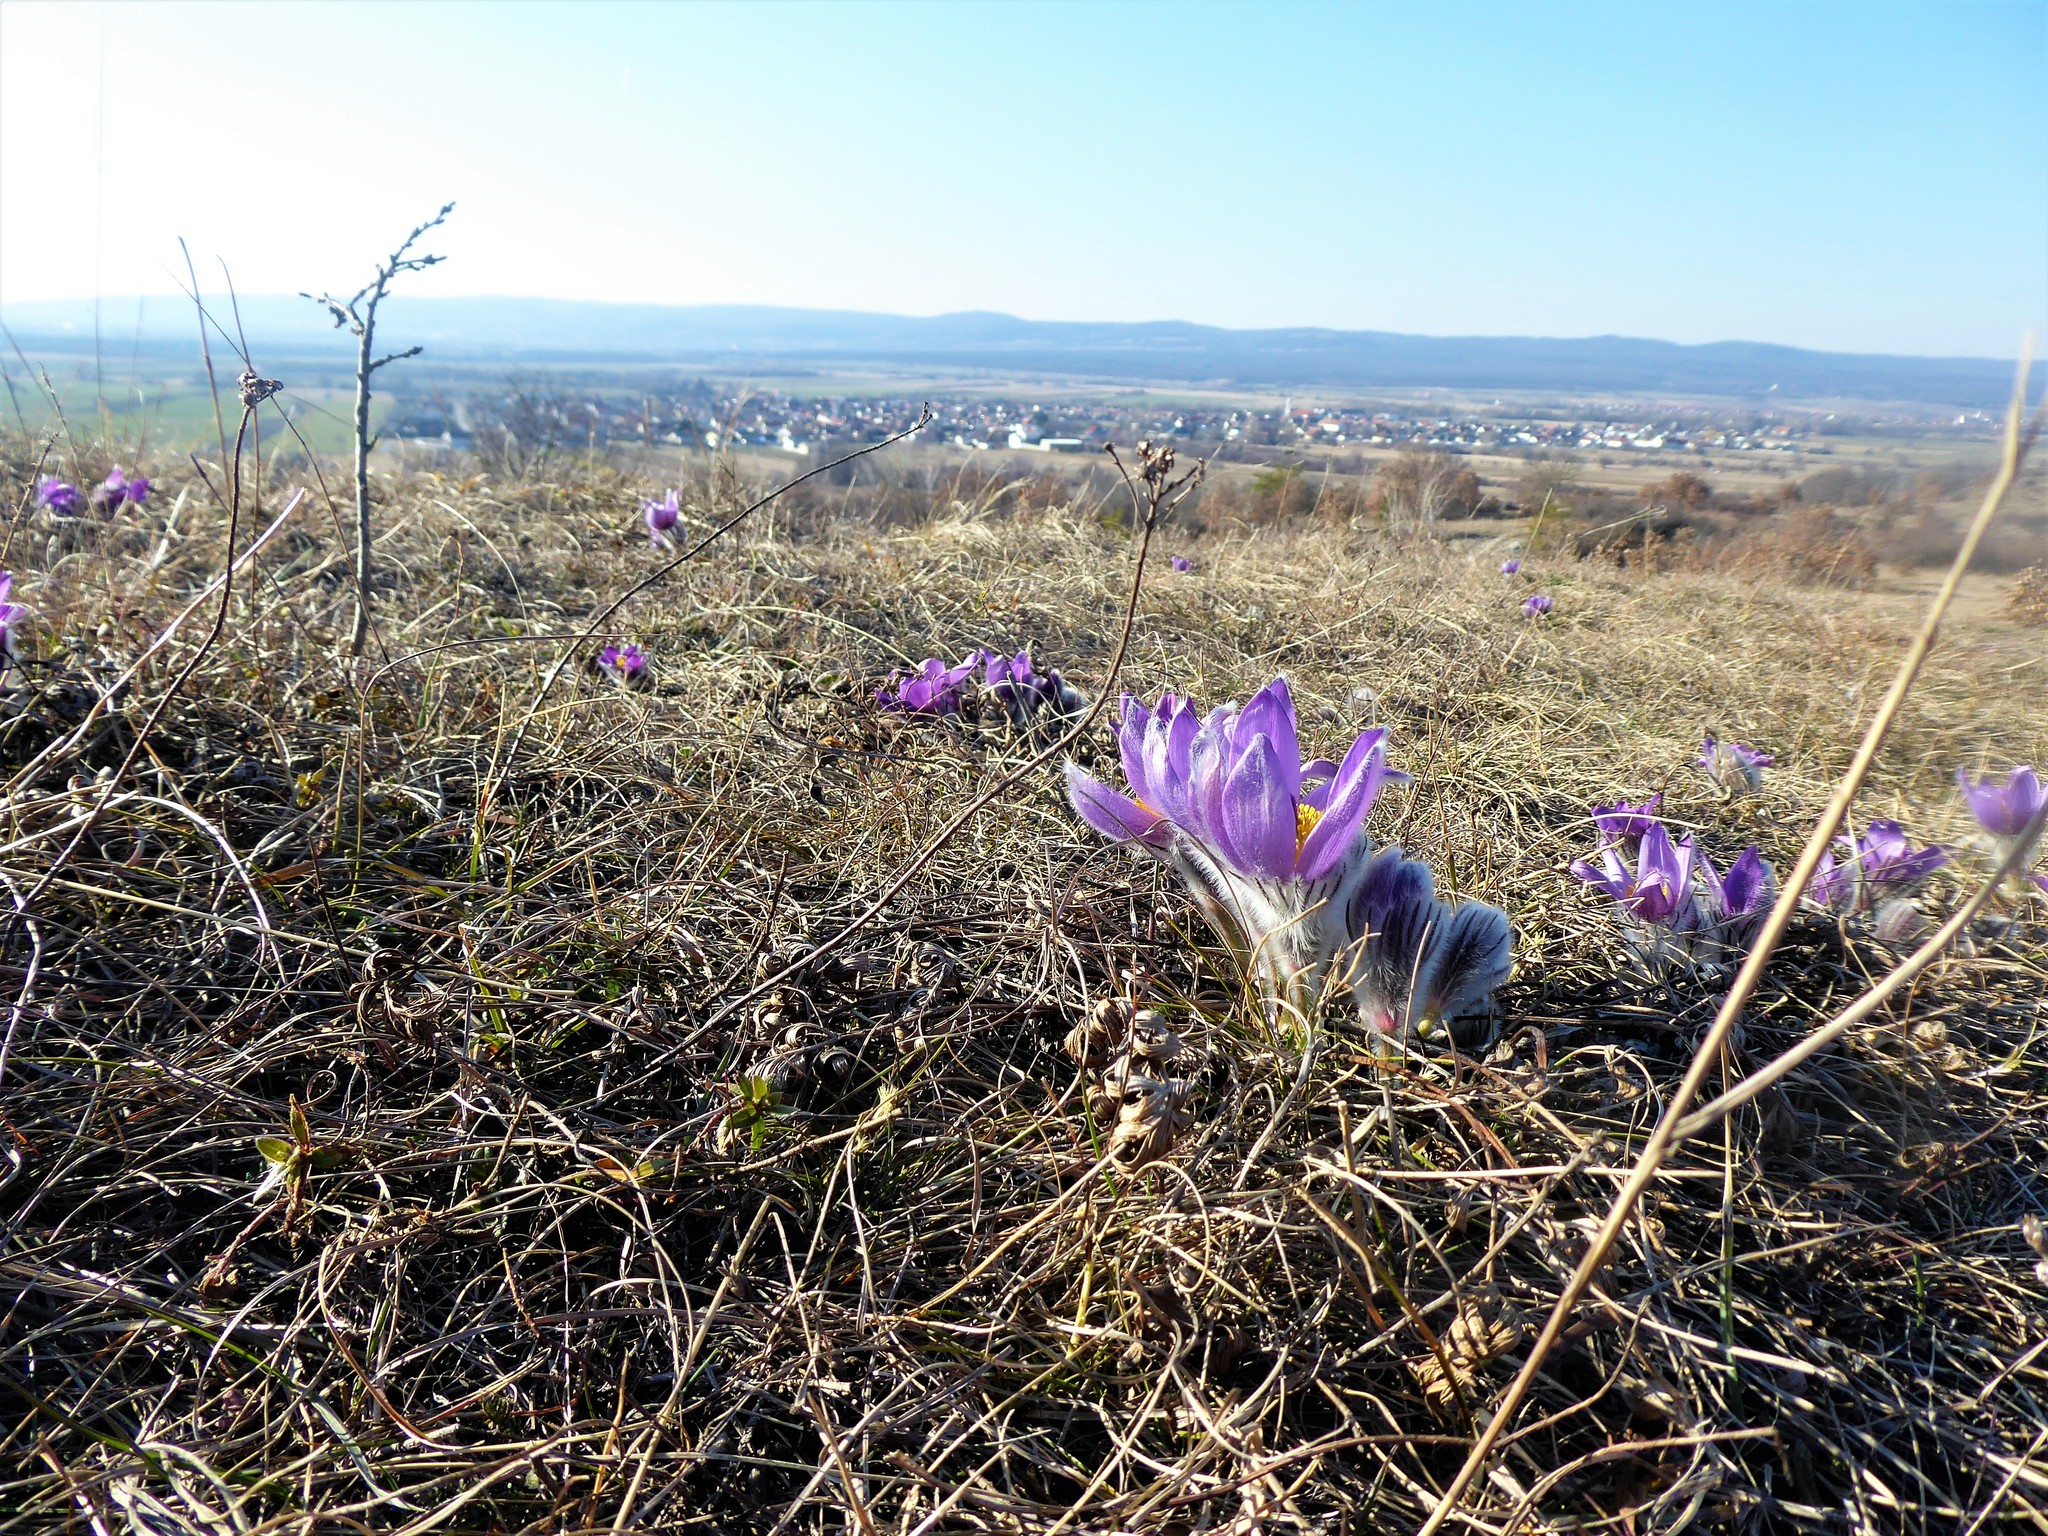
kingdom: Plantae
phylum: Tracheophyta
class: Magnoliopsida
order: Ranunculales
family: Ranunculaceae
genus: Pulsatilla
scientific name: Pulsatilla grandis
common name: Greater pasque flower
